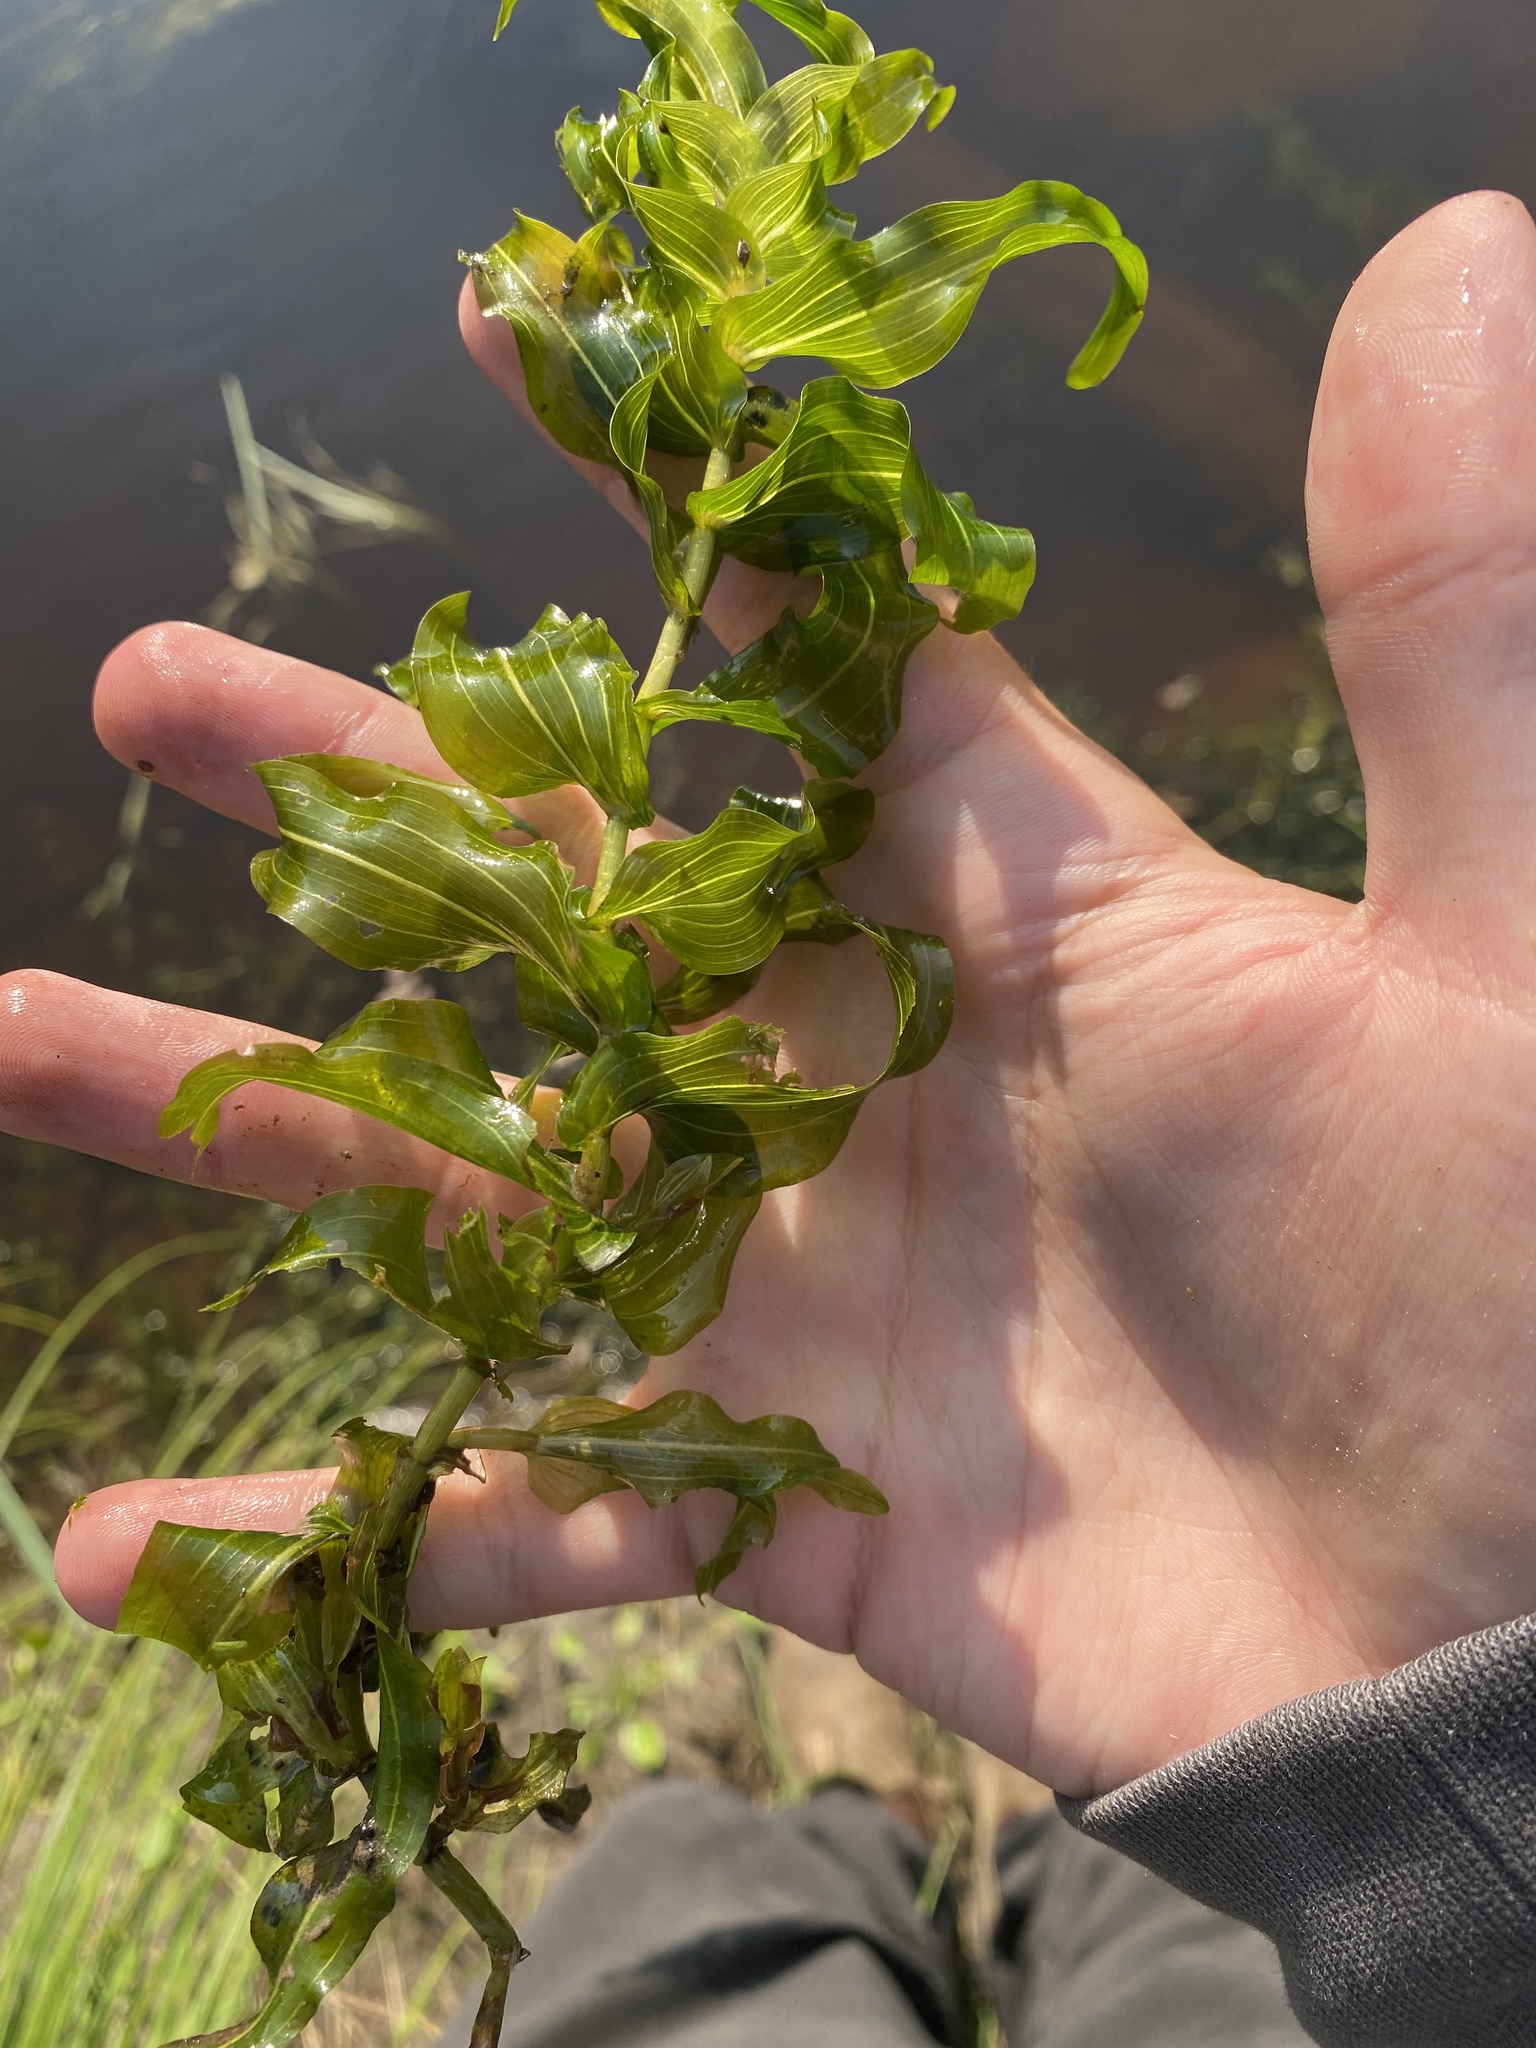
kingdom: Plantae
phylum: Tracheophyta
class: Liliopsida
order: Alismatales
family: Potamogetonaceae
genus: Potamogeton
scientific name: Potamogeton richardsonii
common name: Richardson's pondweed
